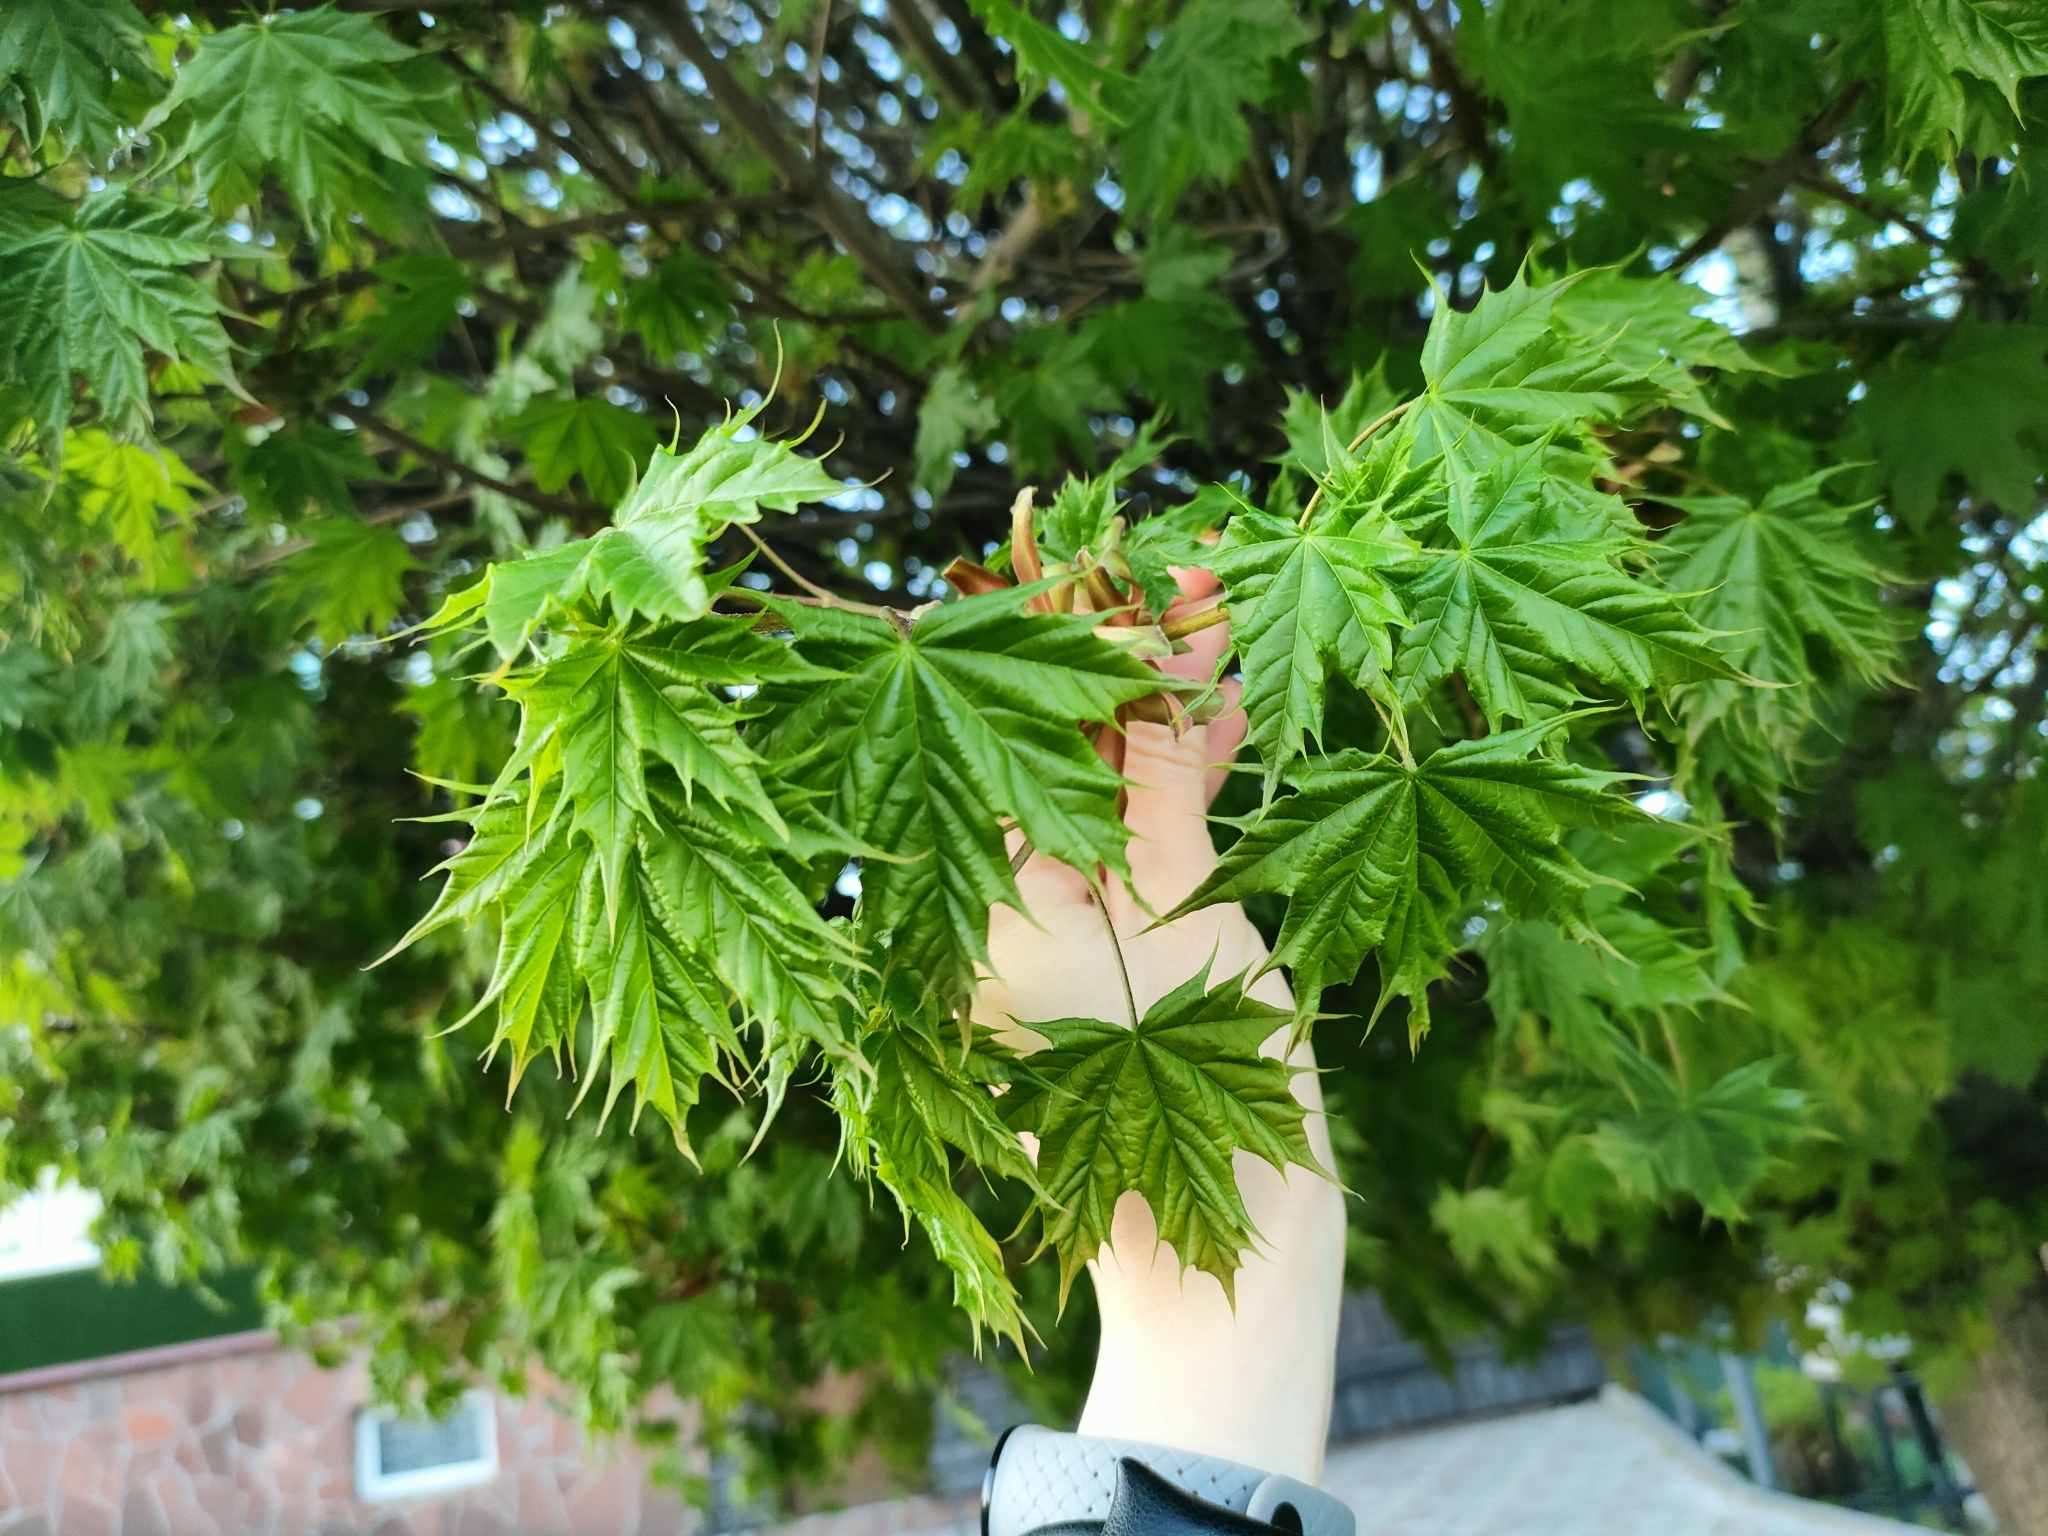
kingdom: Plantae
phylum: Tracheophyta
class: Magnoliopsida
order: Sapindales
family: Sapindaceae
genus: Acer
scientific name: Acer platanoides
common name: Norway maple
